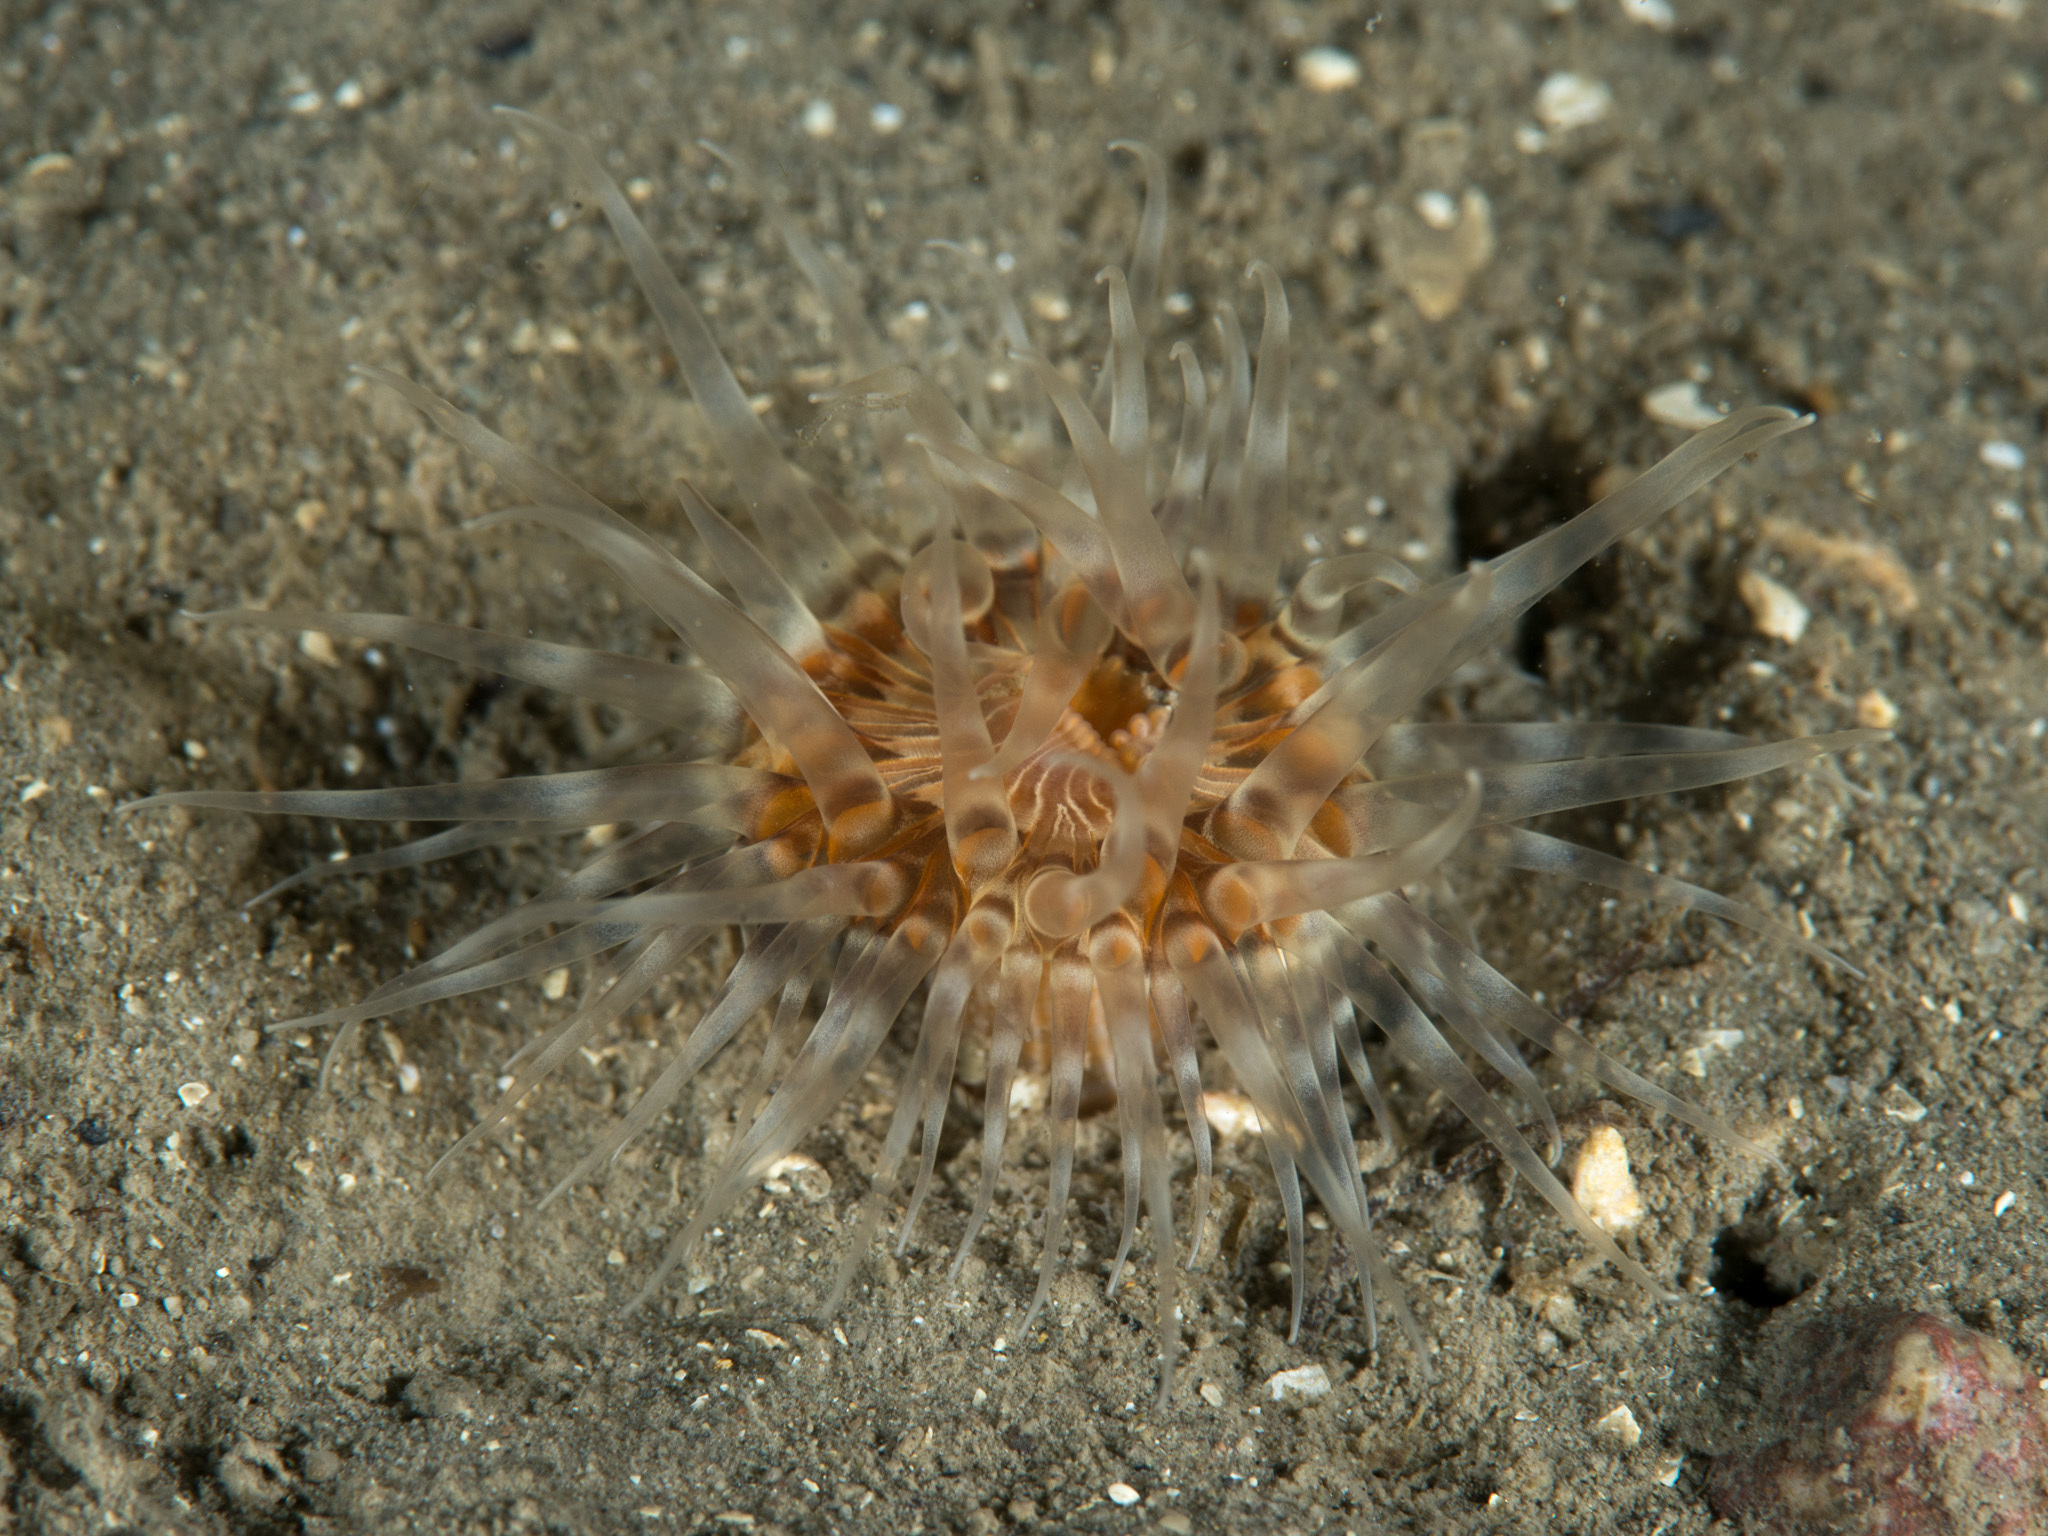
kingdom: Animalia
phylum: Cnidaria
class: Anthozoa
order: Actiniaria
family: Sagartiidae
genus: Sagartia
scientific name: Sagartia lacerata
